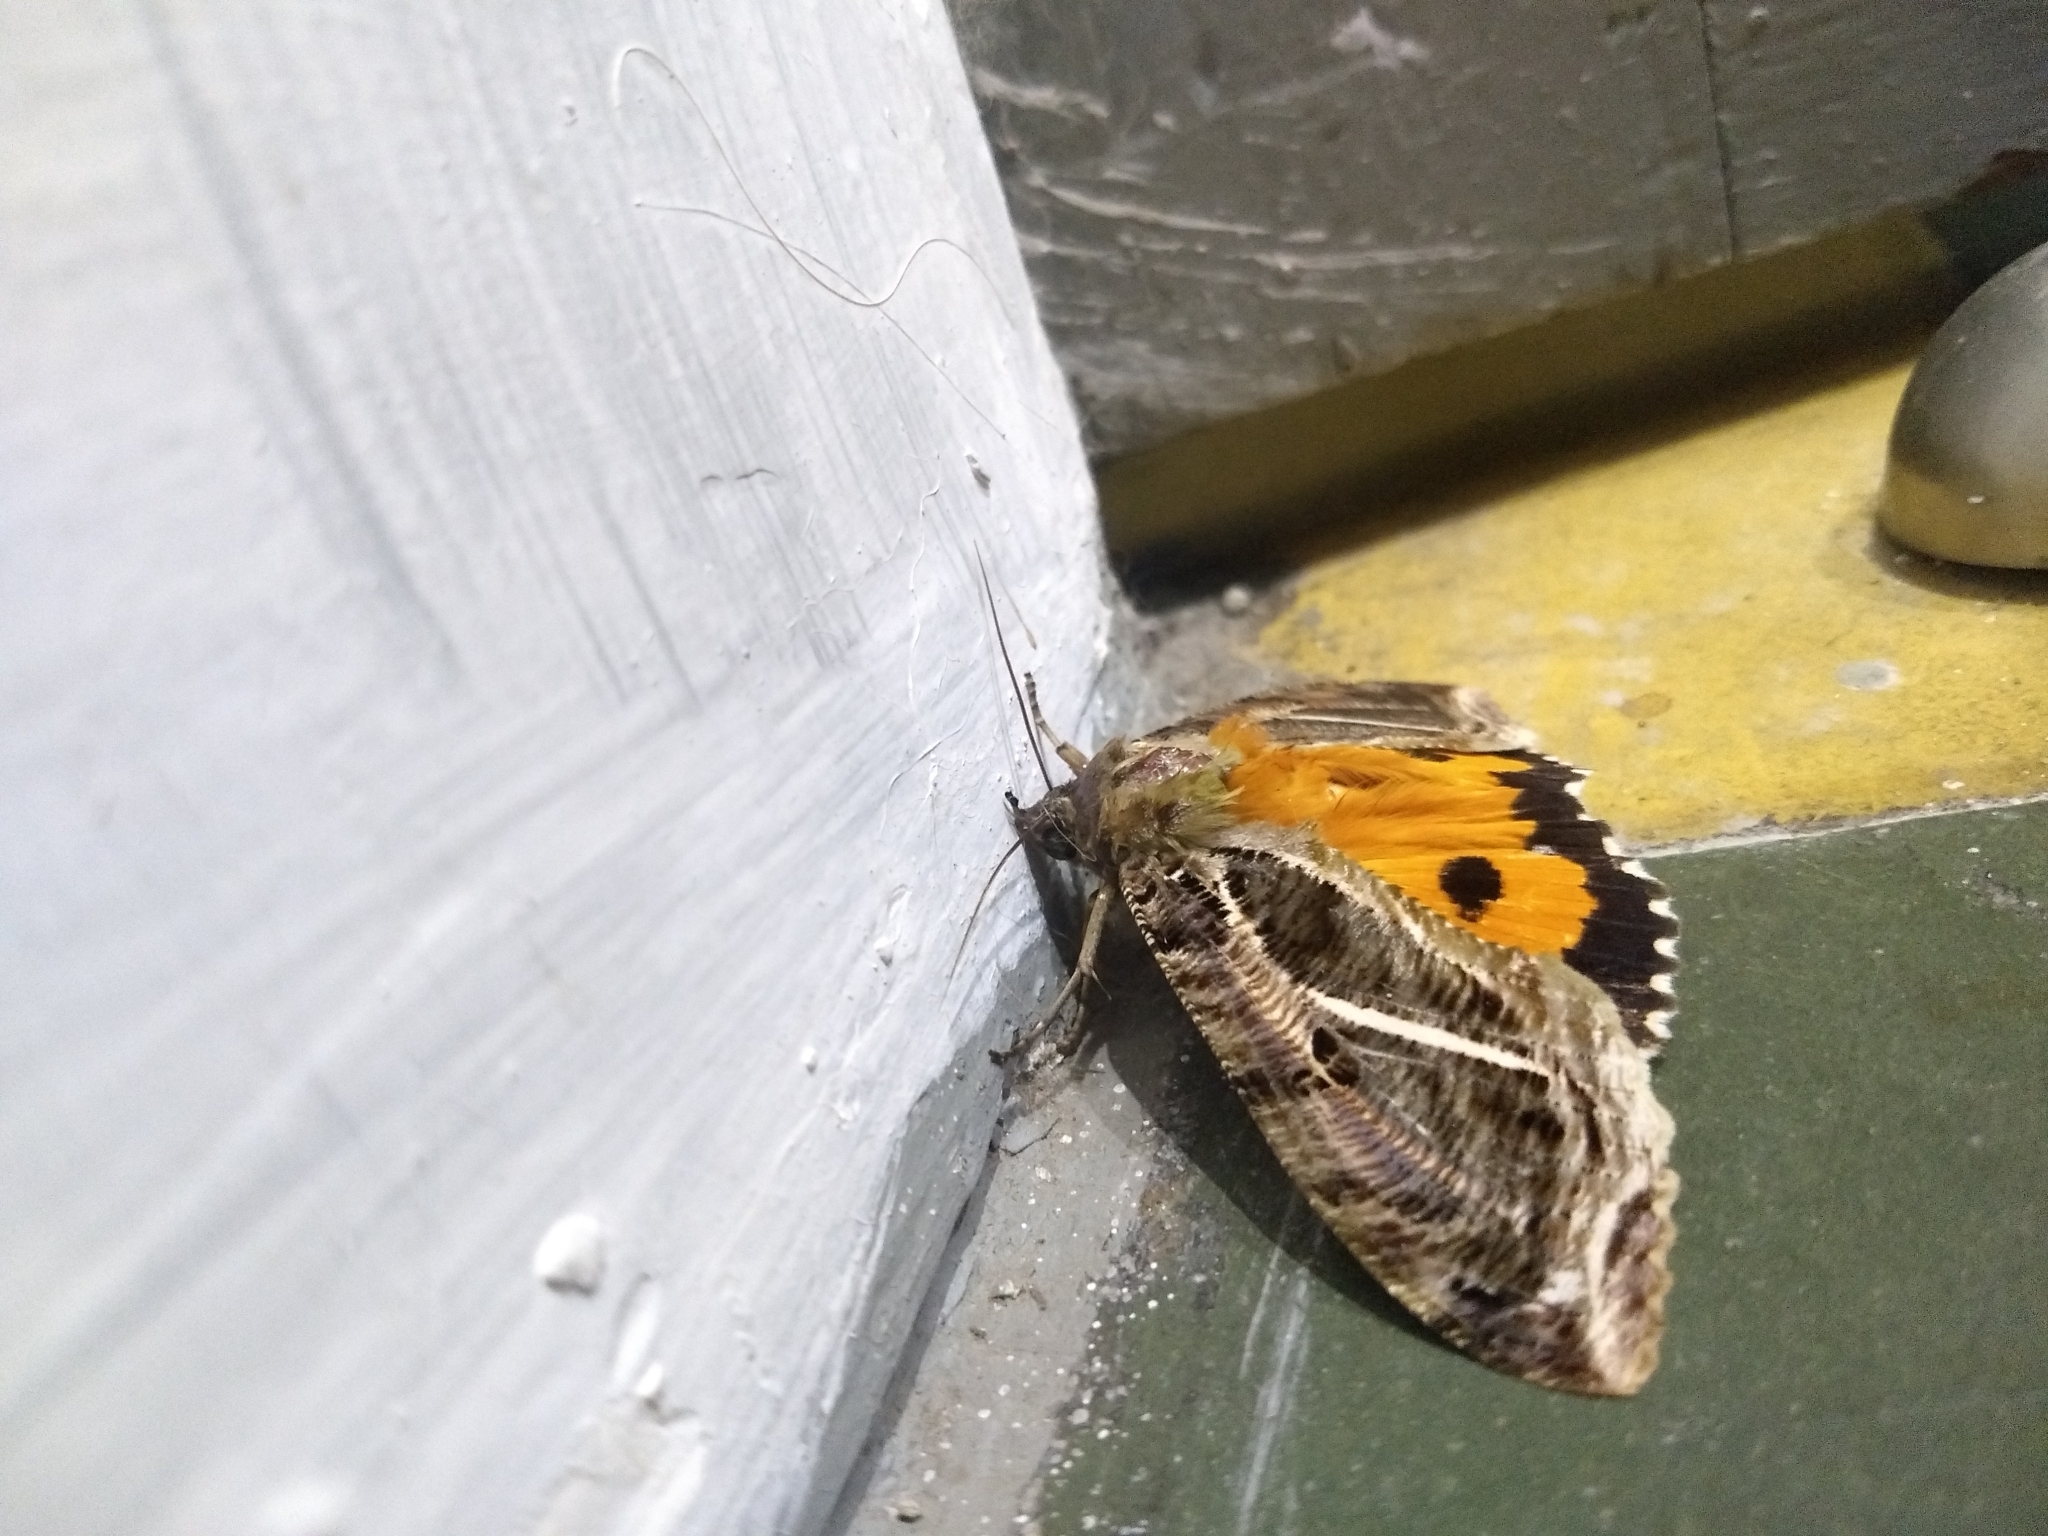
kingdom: Animalia
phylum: Arthropoda
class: Insecta
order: Lepidoptera
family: Erebidae
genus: Eudocima
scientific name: Eudocima apta
